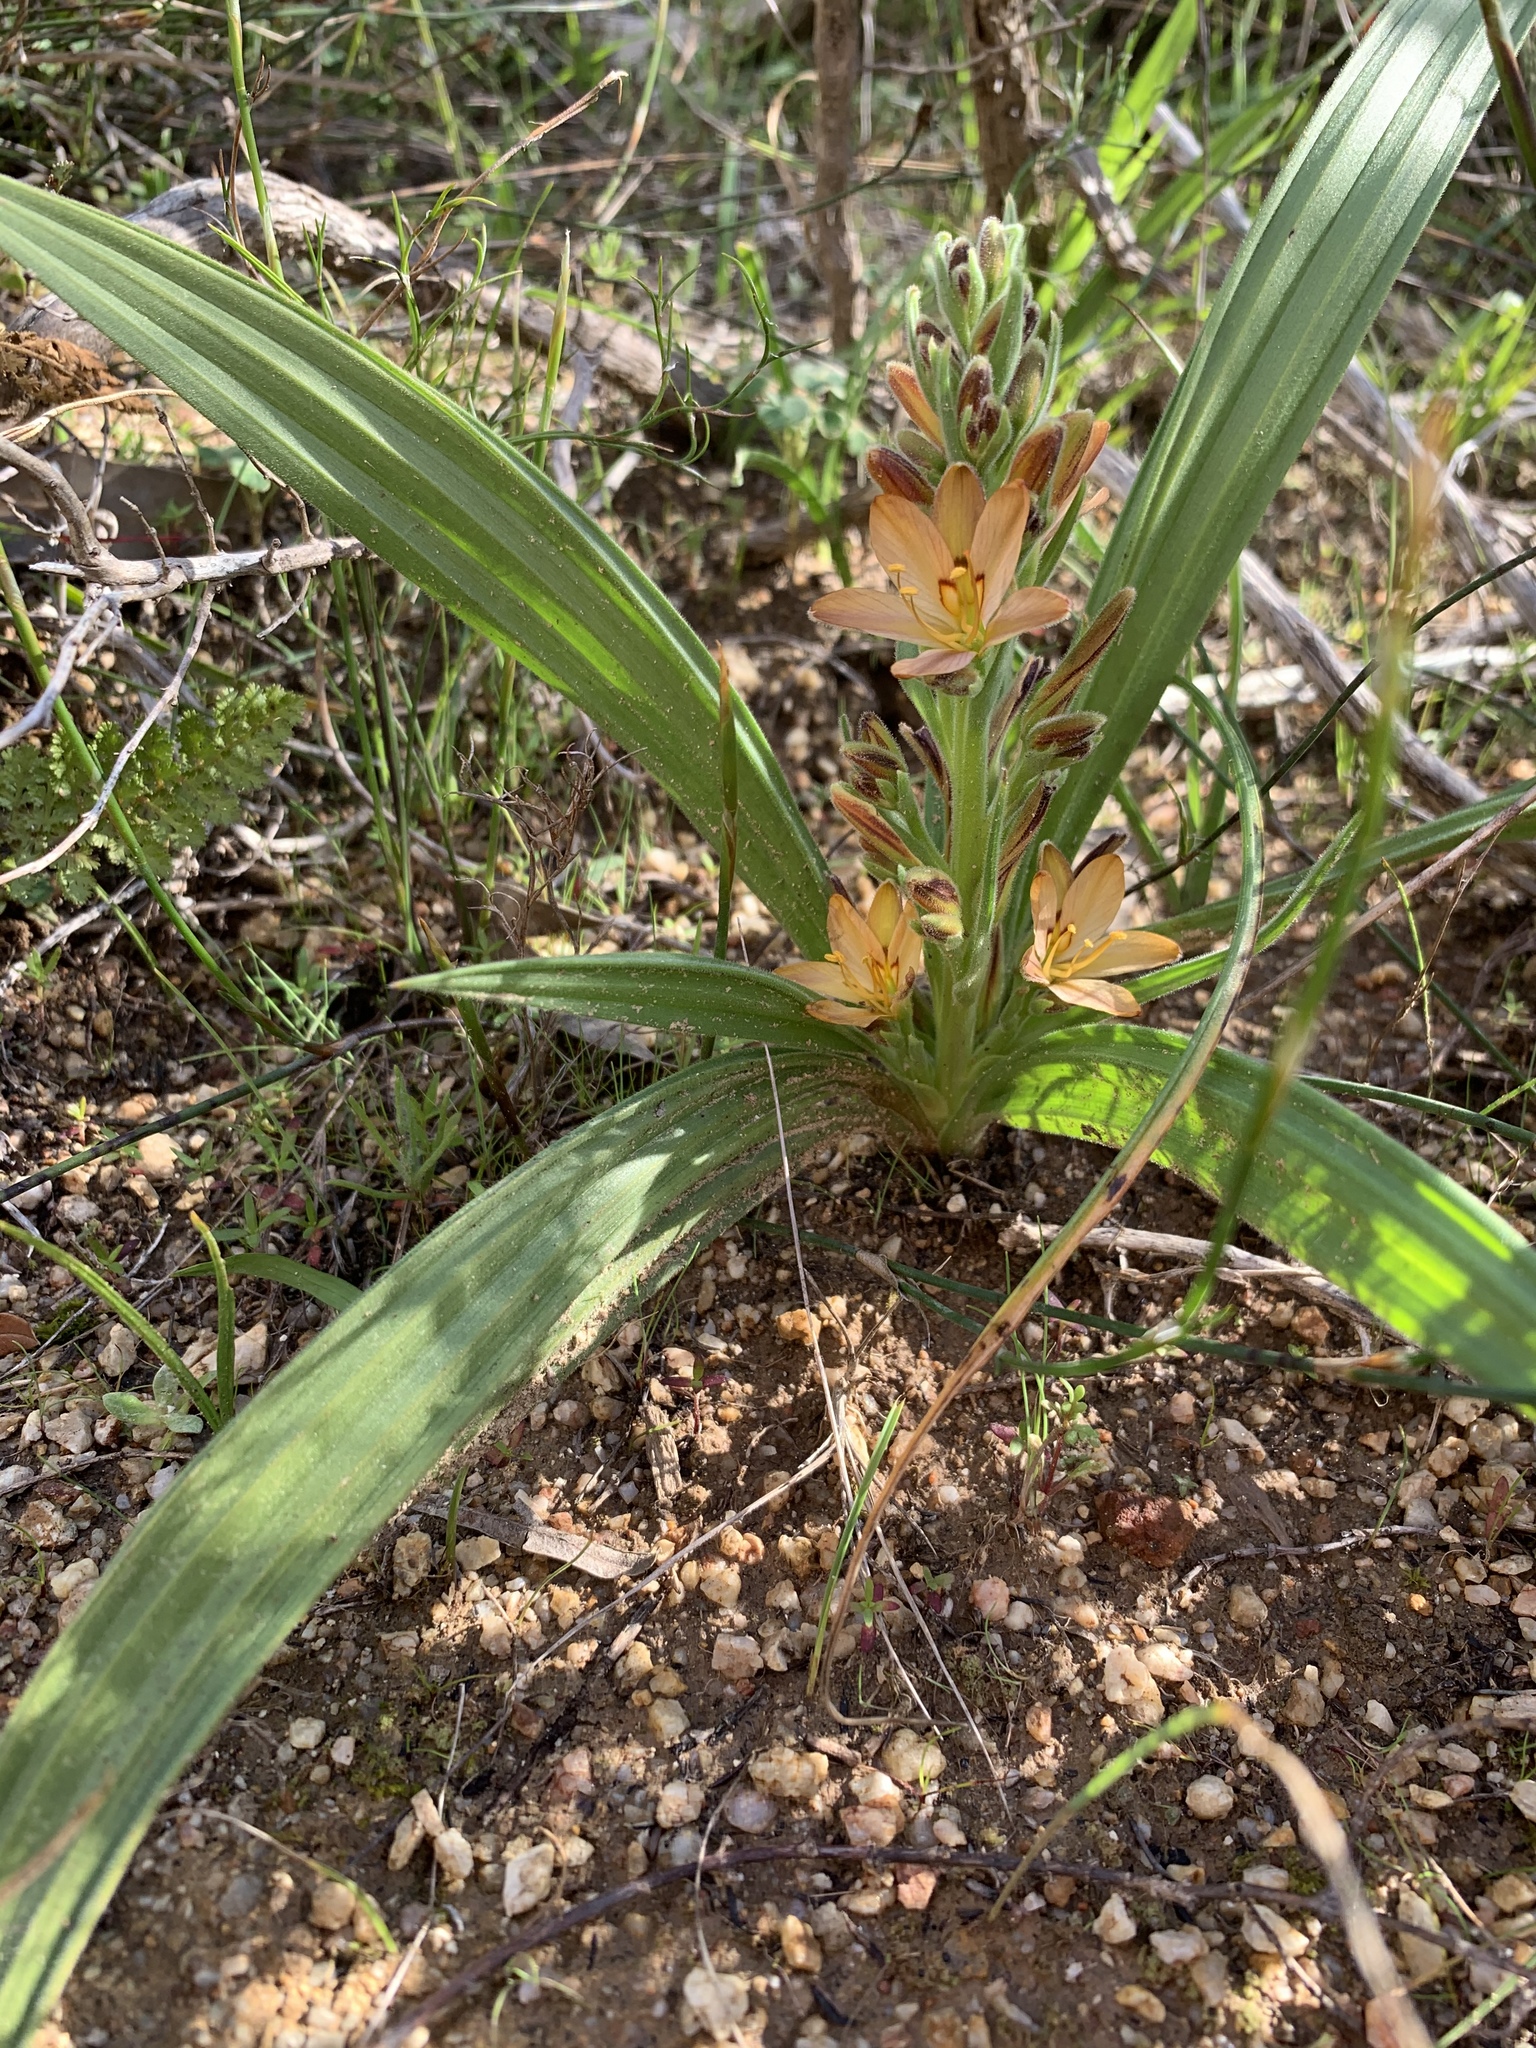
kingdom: Plantae
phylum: Tracheophyta
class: Liliopsida
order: Commelinales
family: Haemodoraceae
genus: Wachendorfia
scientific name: Wachendorfia multiflora
